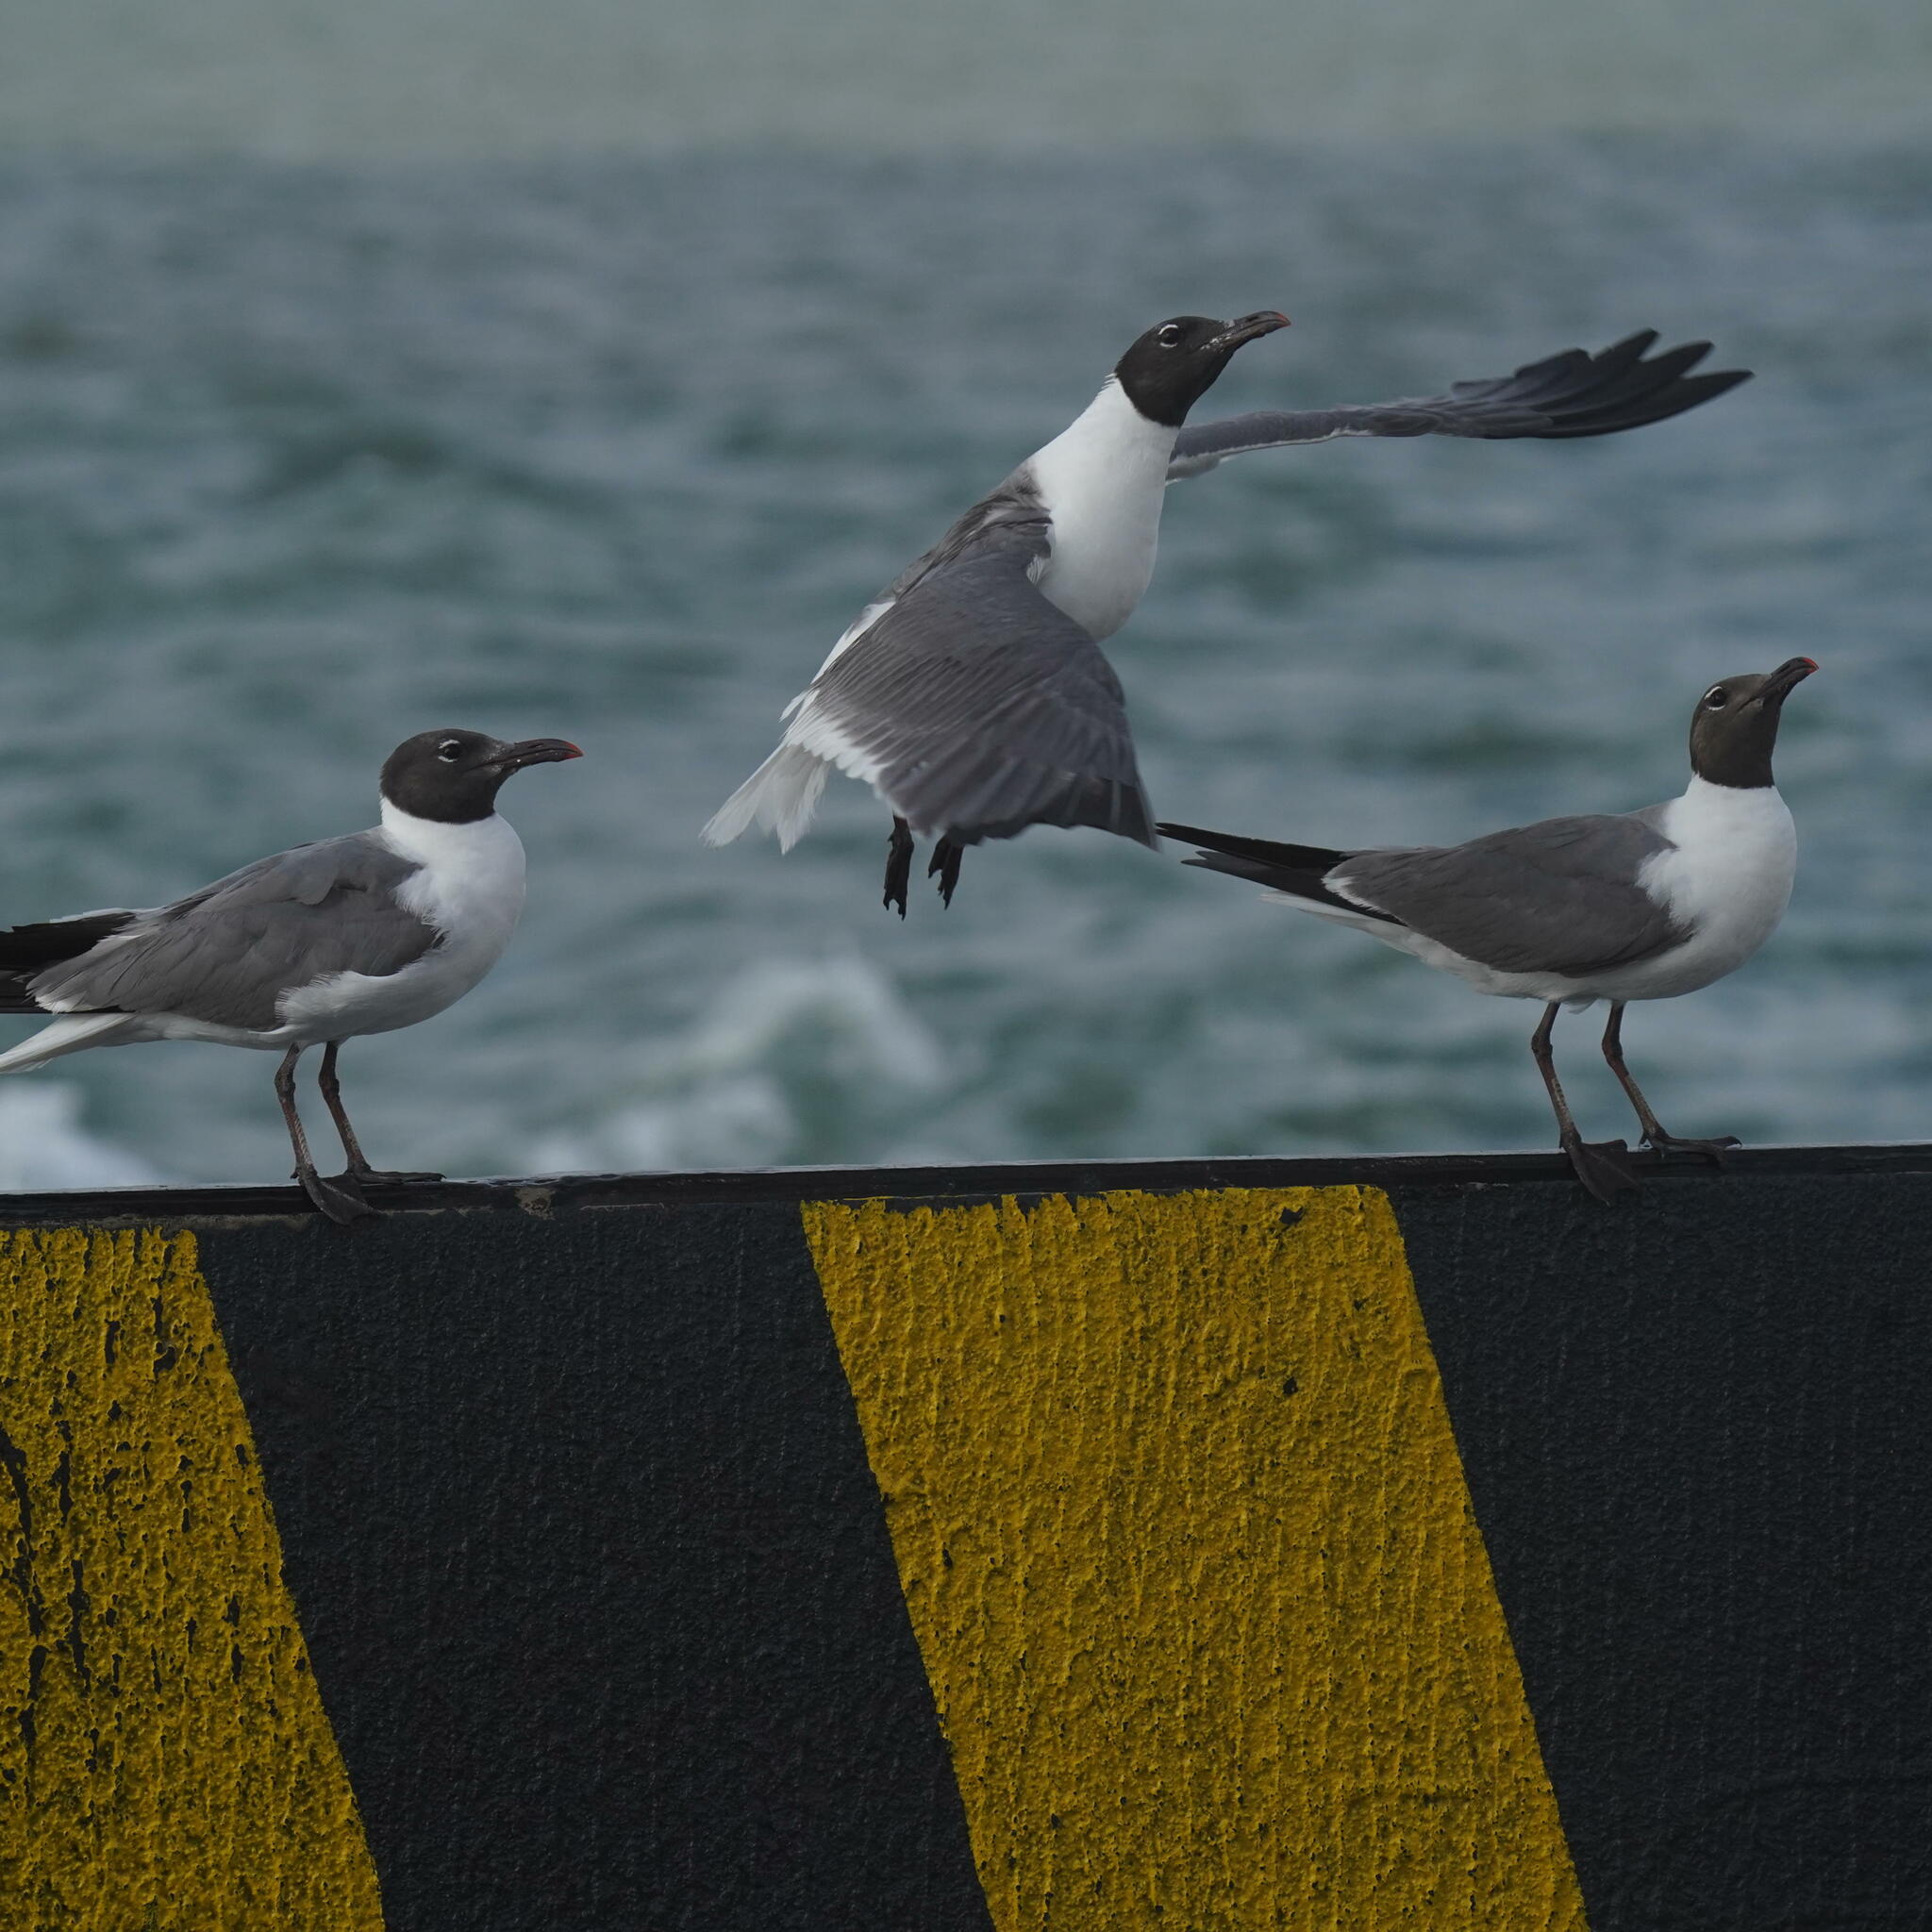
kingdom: Animalia
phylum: Chordata
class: Aves
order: Charadriiformes
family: Laridae
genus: Leucophaeus
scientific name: Leucophaeus atricilla
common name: Laughing gull
